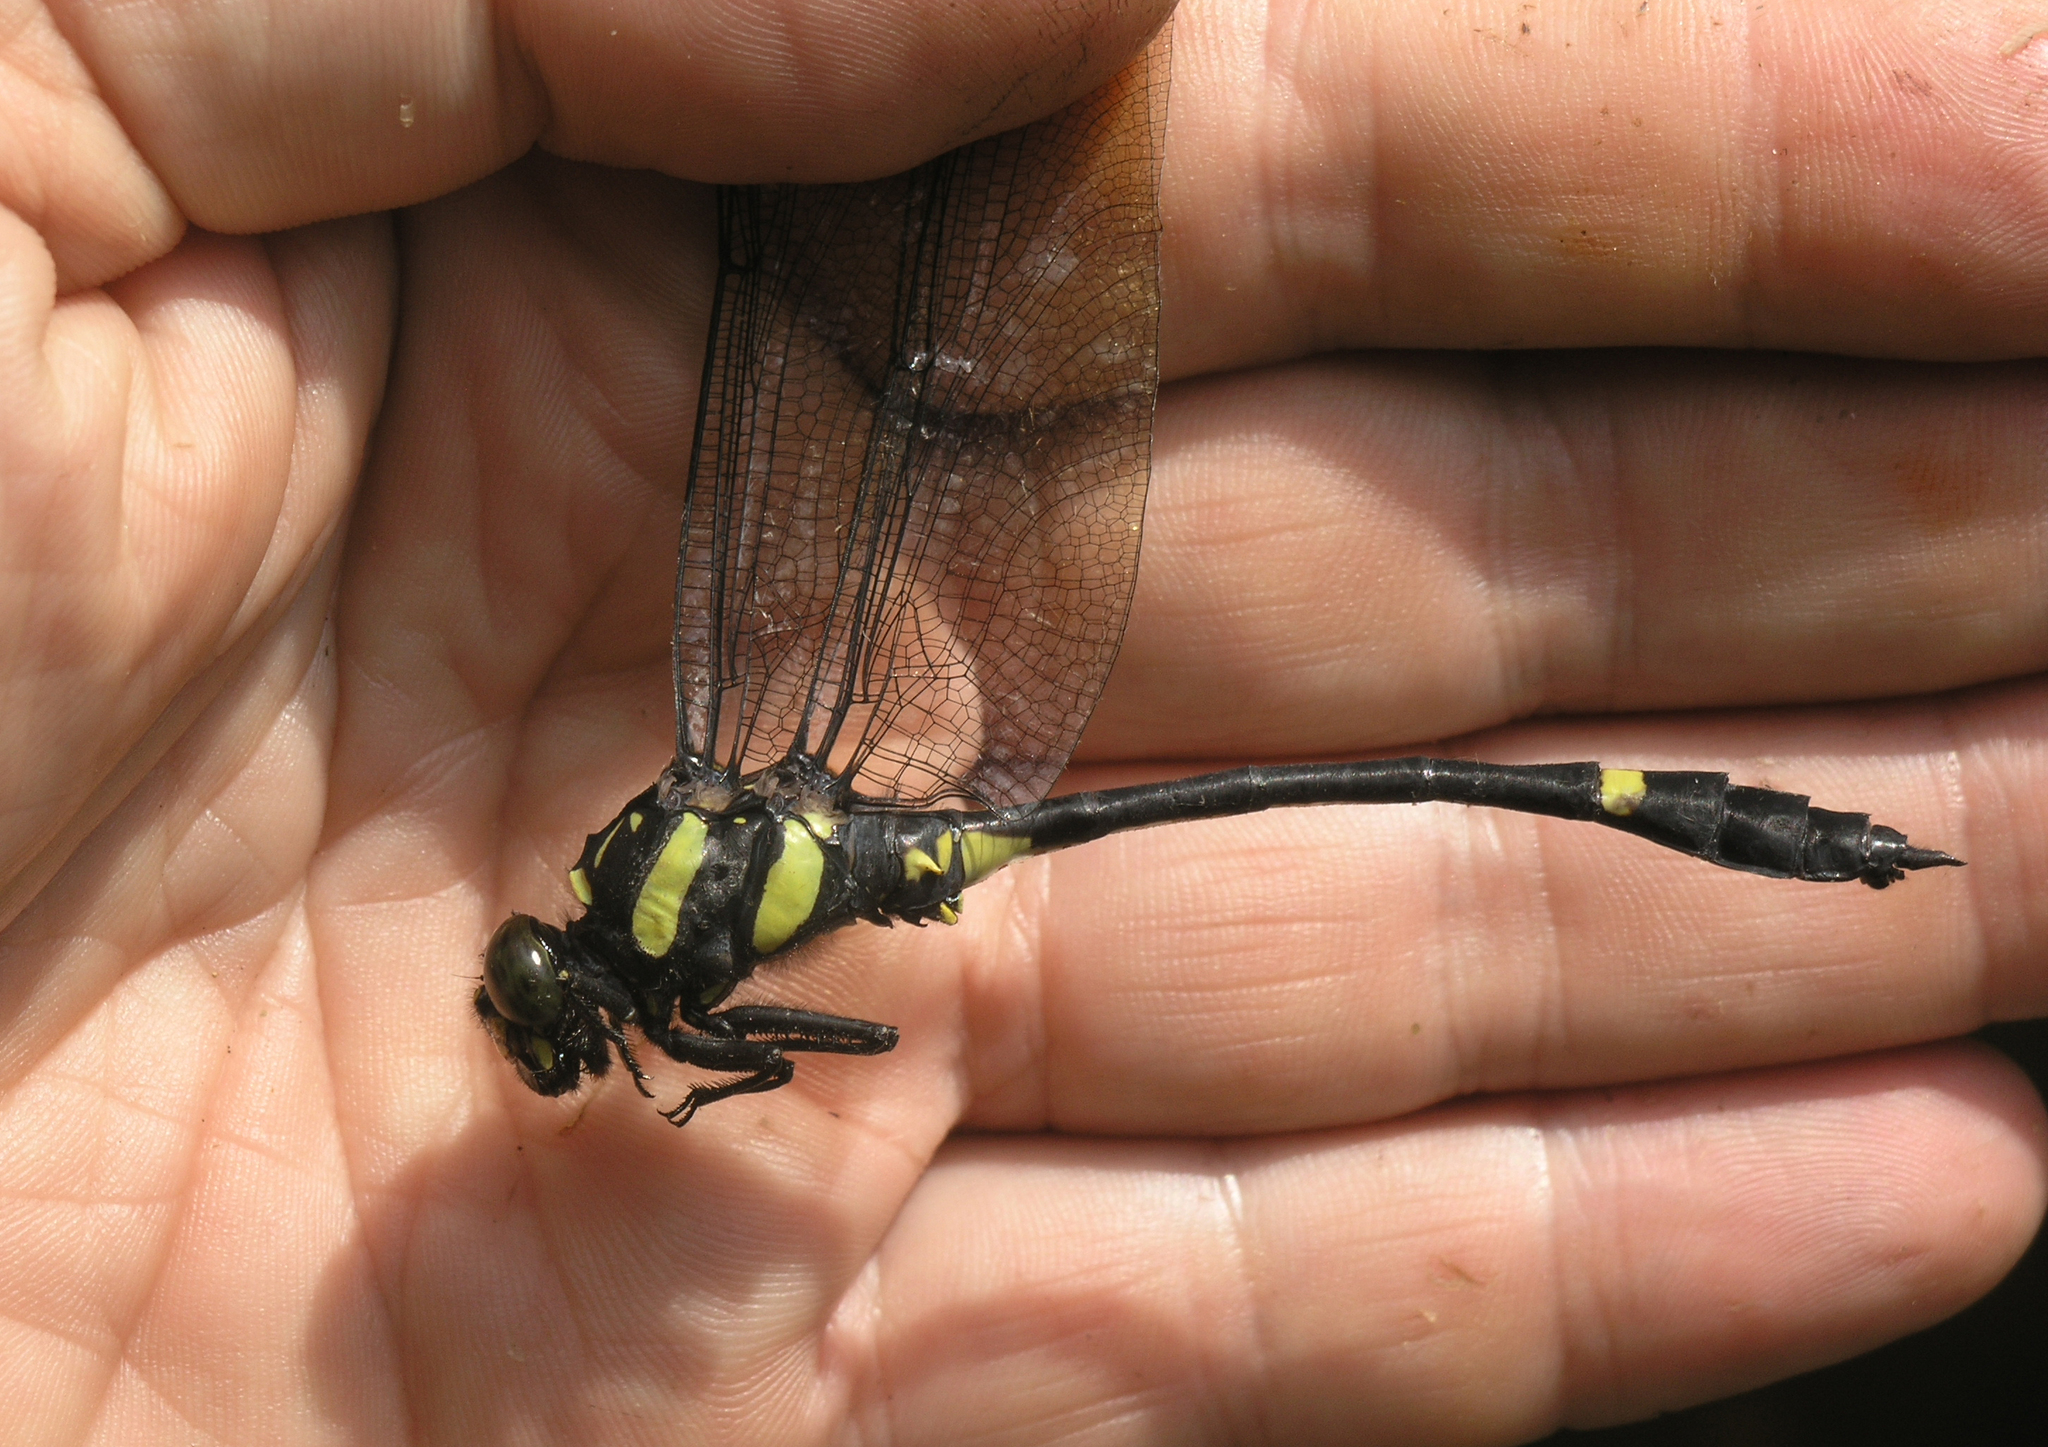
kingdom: Animalia
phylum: Arthropoda
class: Insecta
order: Odonata
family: Gomphidae
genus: Gomphidictinus
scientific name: Gomphidictinus perakensis
